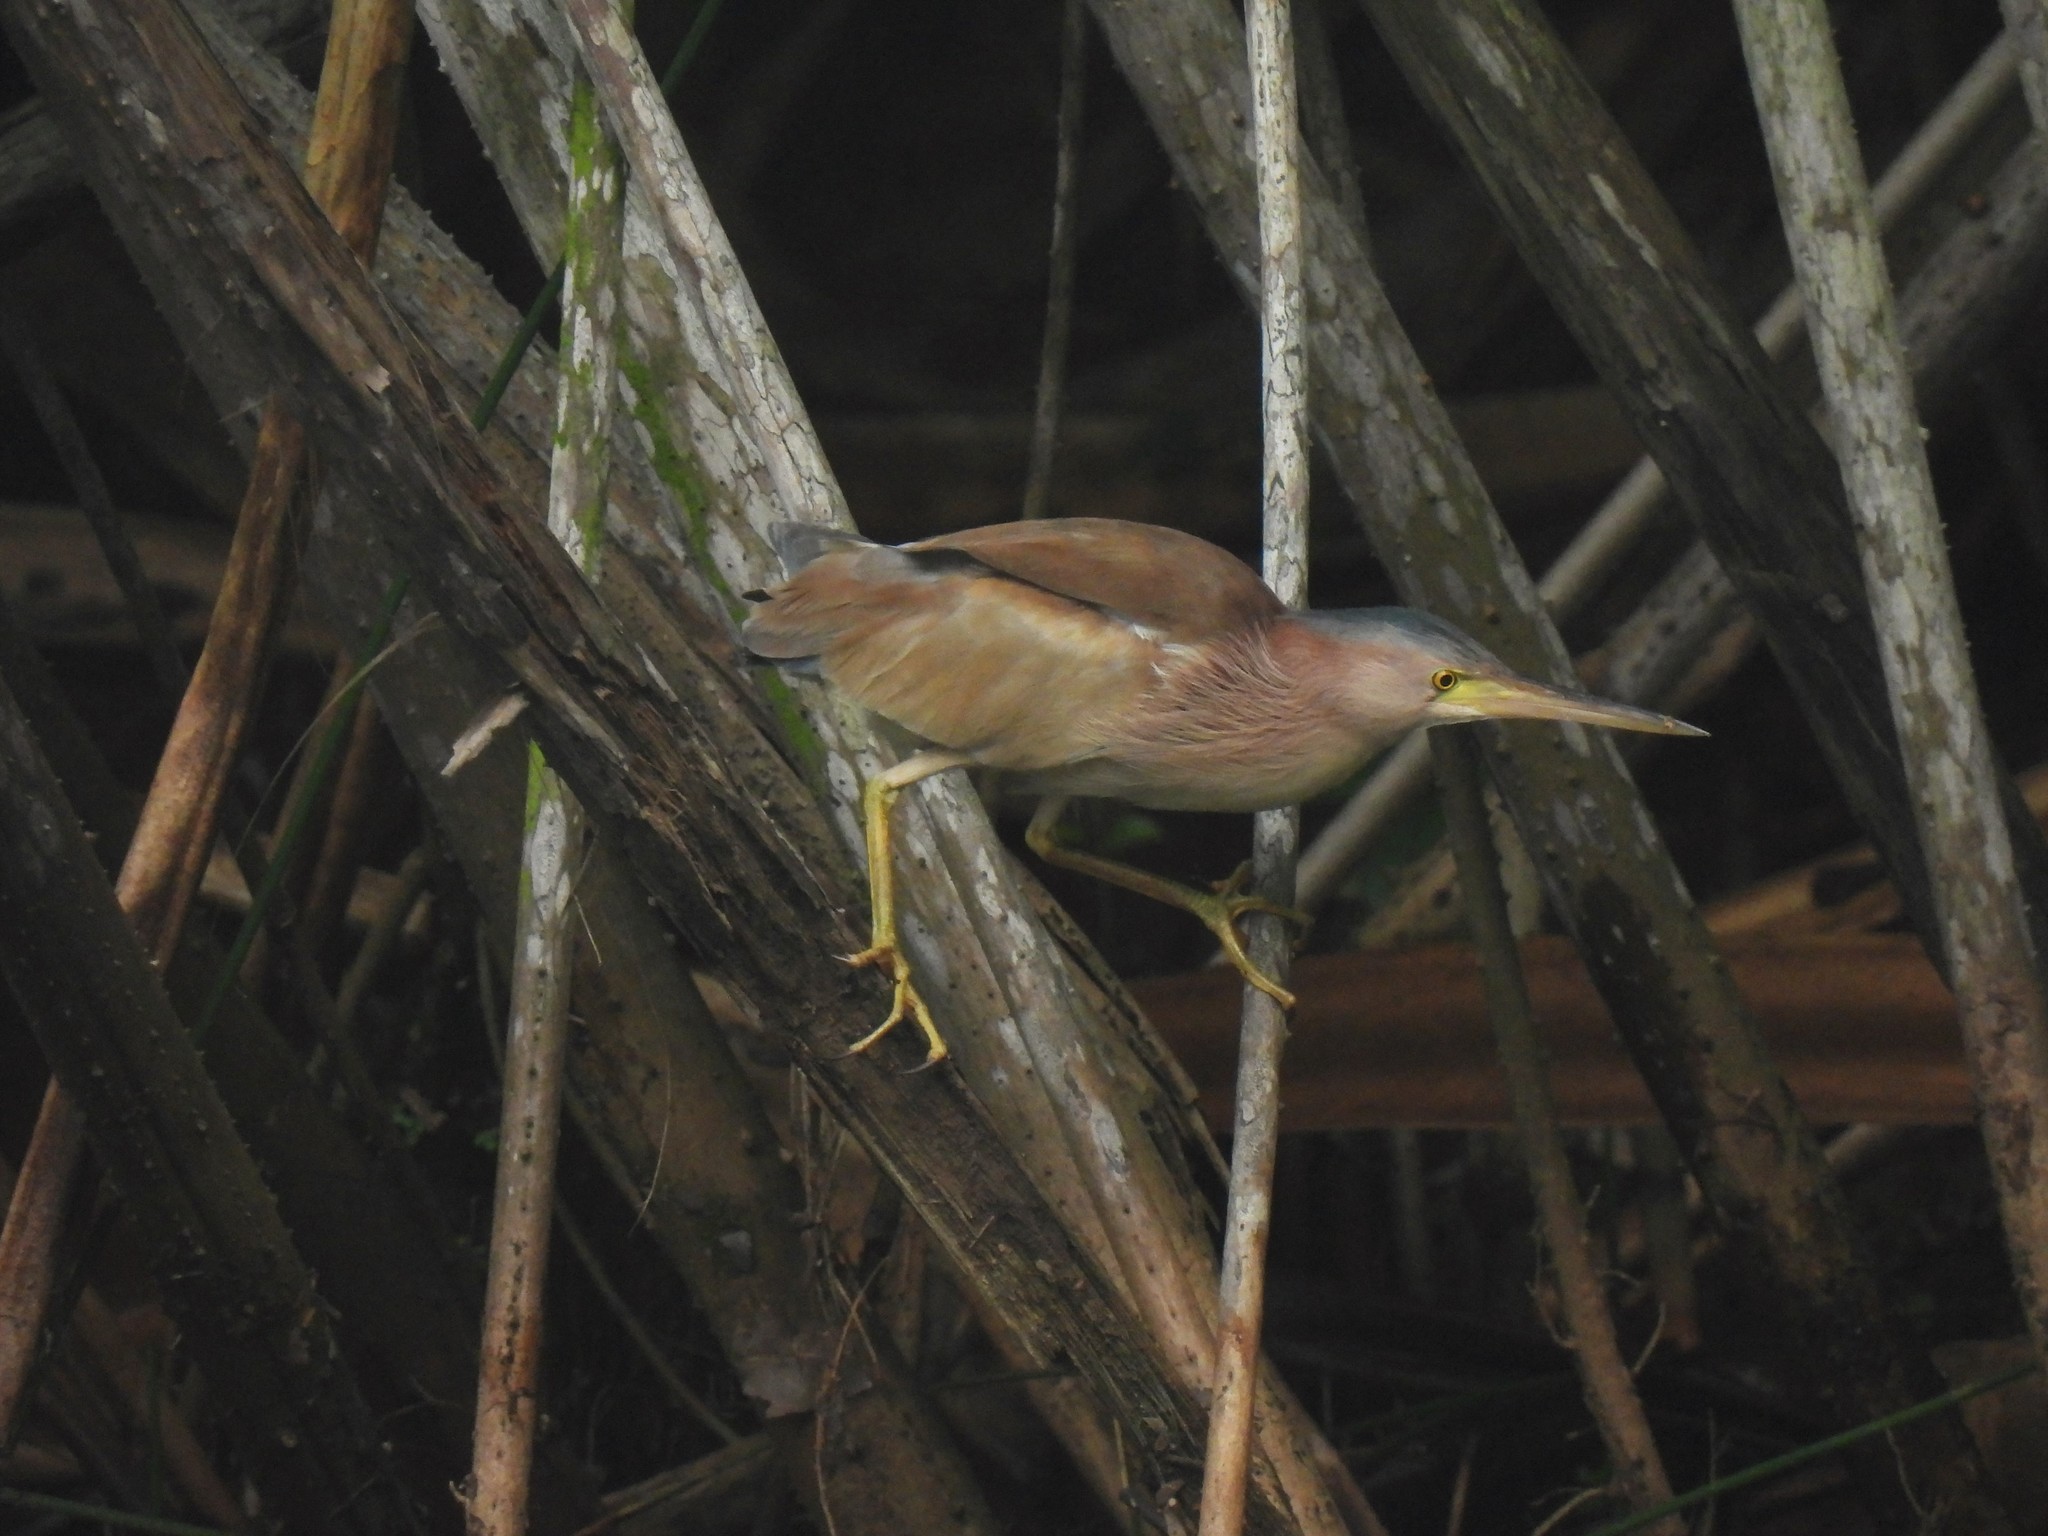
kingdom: Animalia
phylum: Chordata
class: Aves
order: Pelecaniformes
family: Ardeidae
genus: Ixobrychus
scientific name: Ixobrychus sinensis
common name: Yellow bittern
